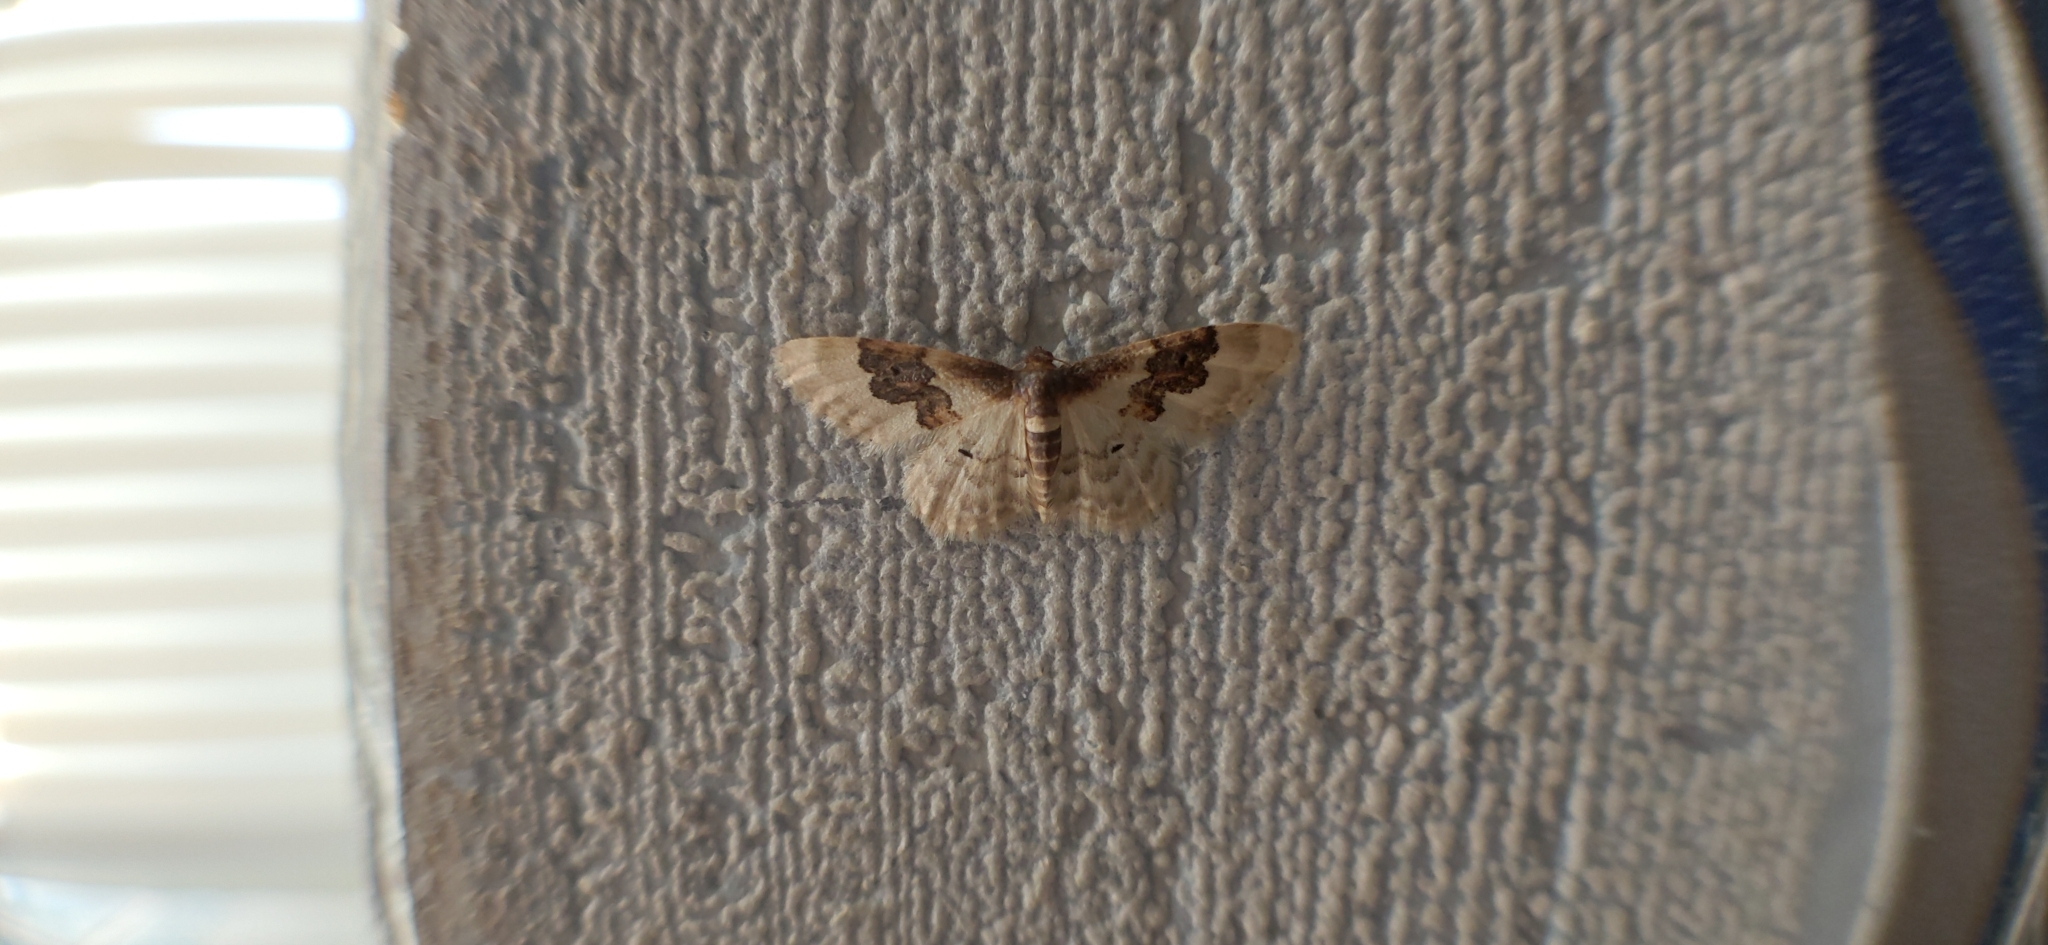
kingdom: Animalia
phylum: Arthropoda
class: Insecta
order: Lepidoptera
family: Geometridae
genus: Idaea
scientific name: Idaea rusticata
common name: Least carpet
